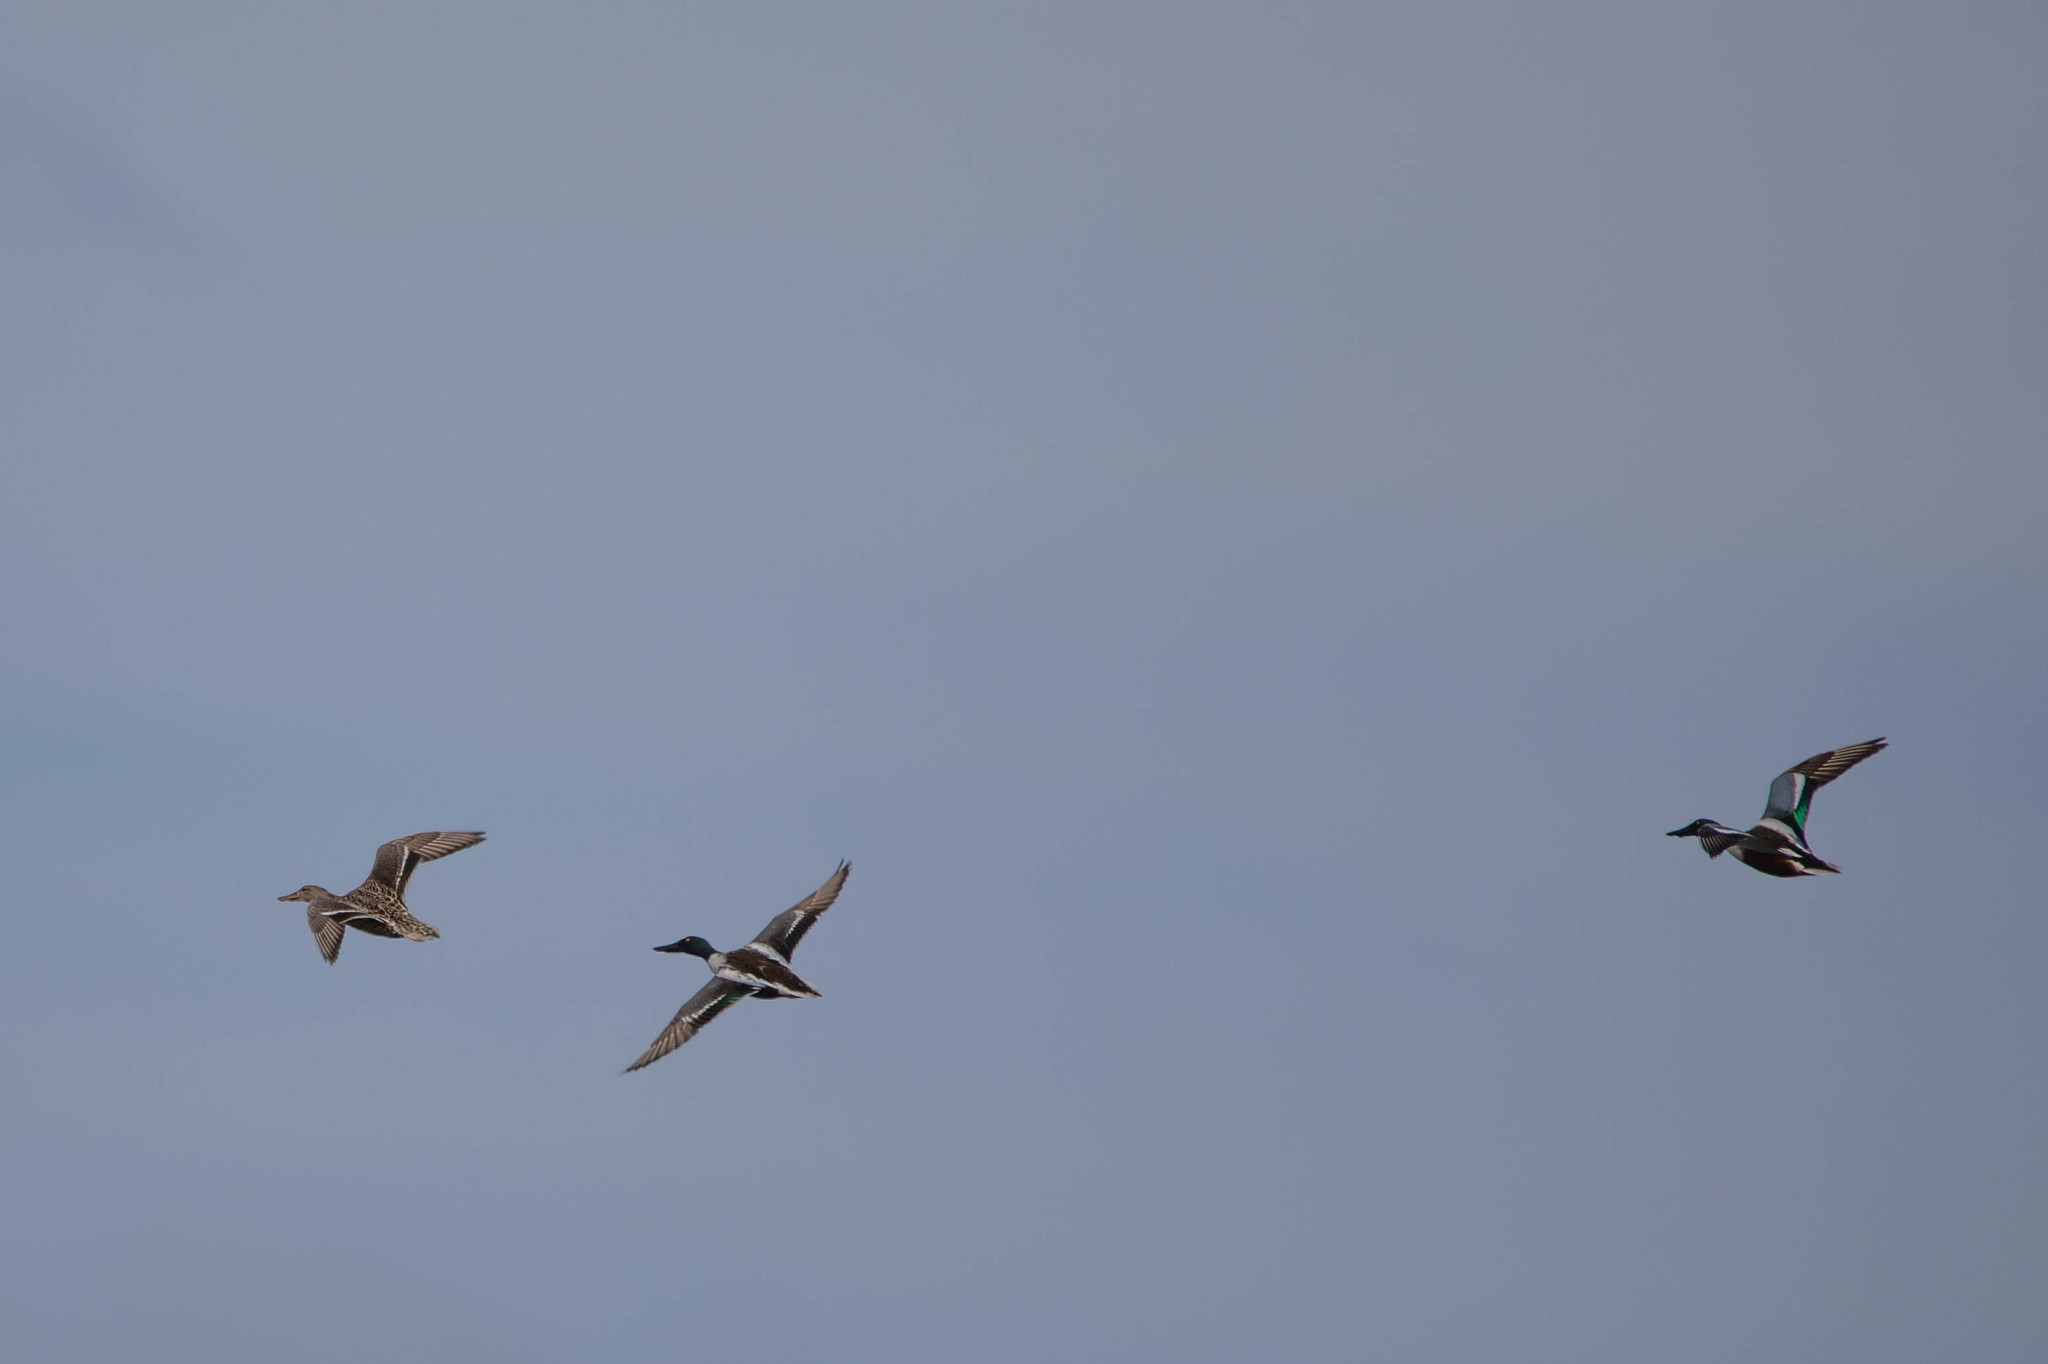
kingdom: Animalia
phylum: Chordata
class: Aves
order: Anseriformes
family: Anatidae
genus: Spatula
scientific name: Spatula clypeata
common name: Northern shoveler
